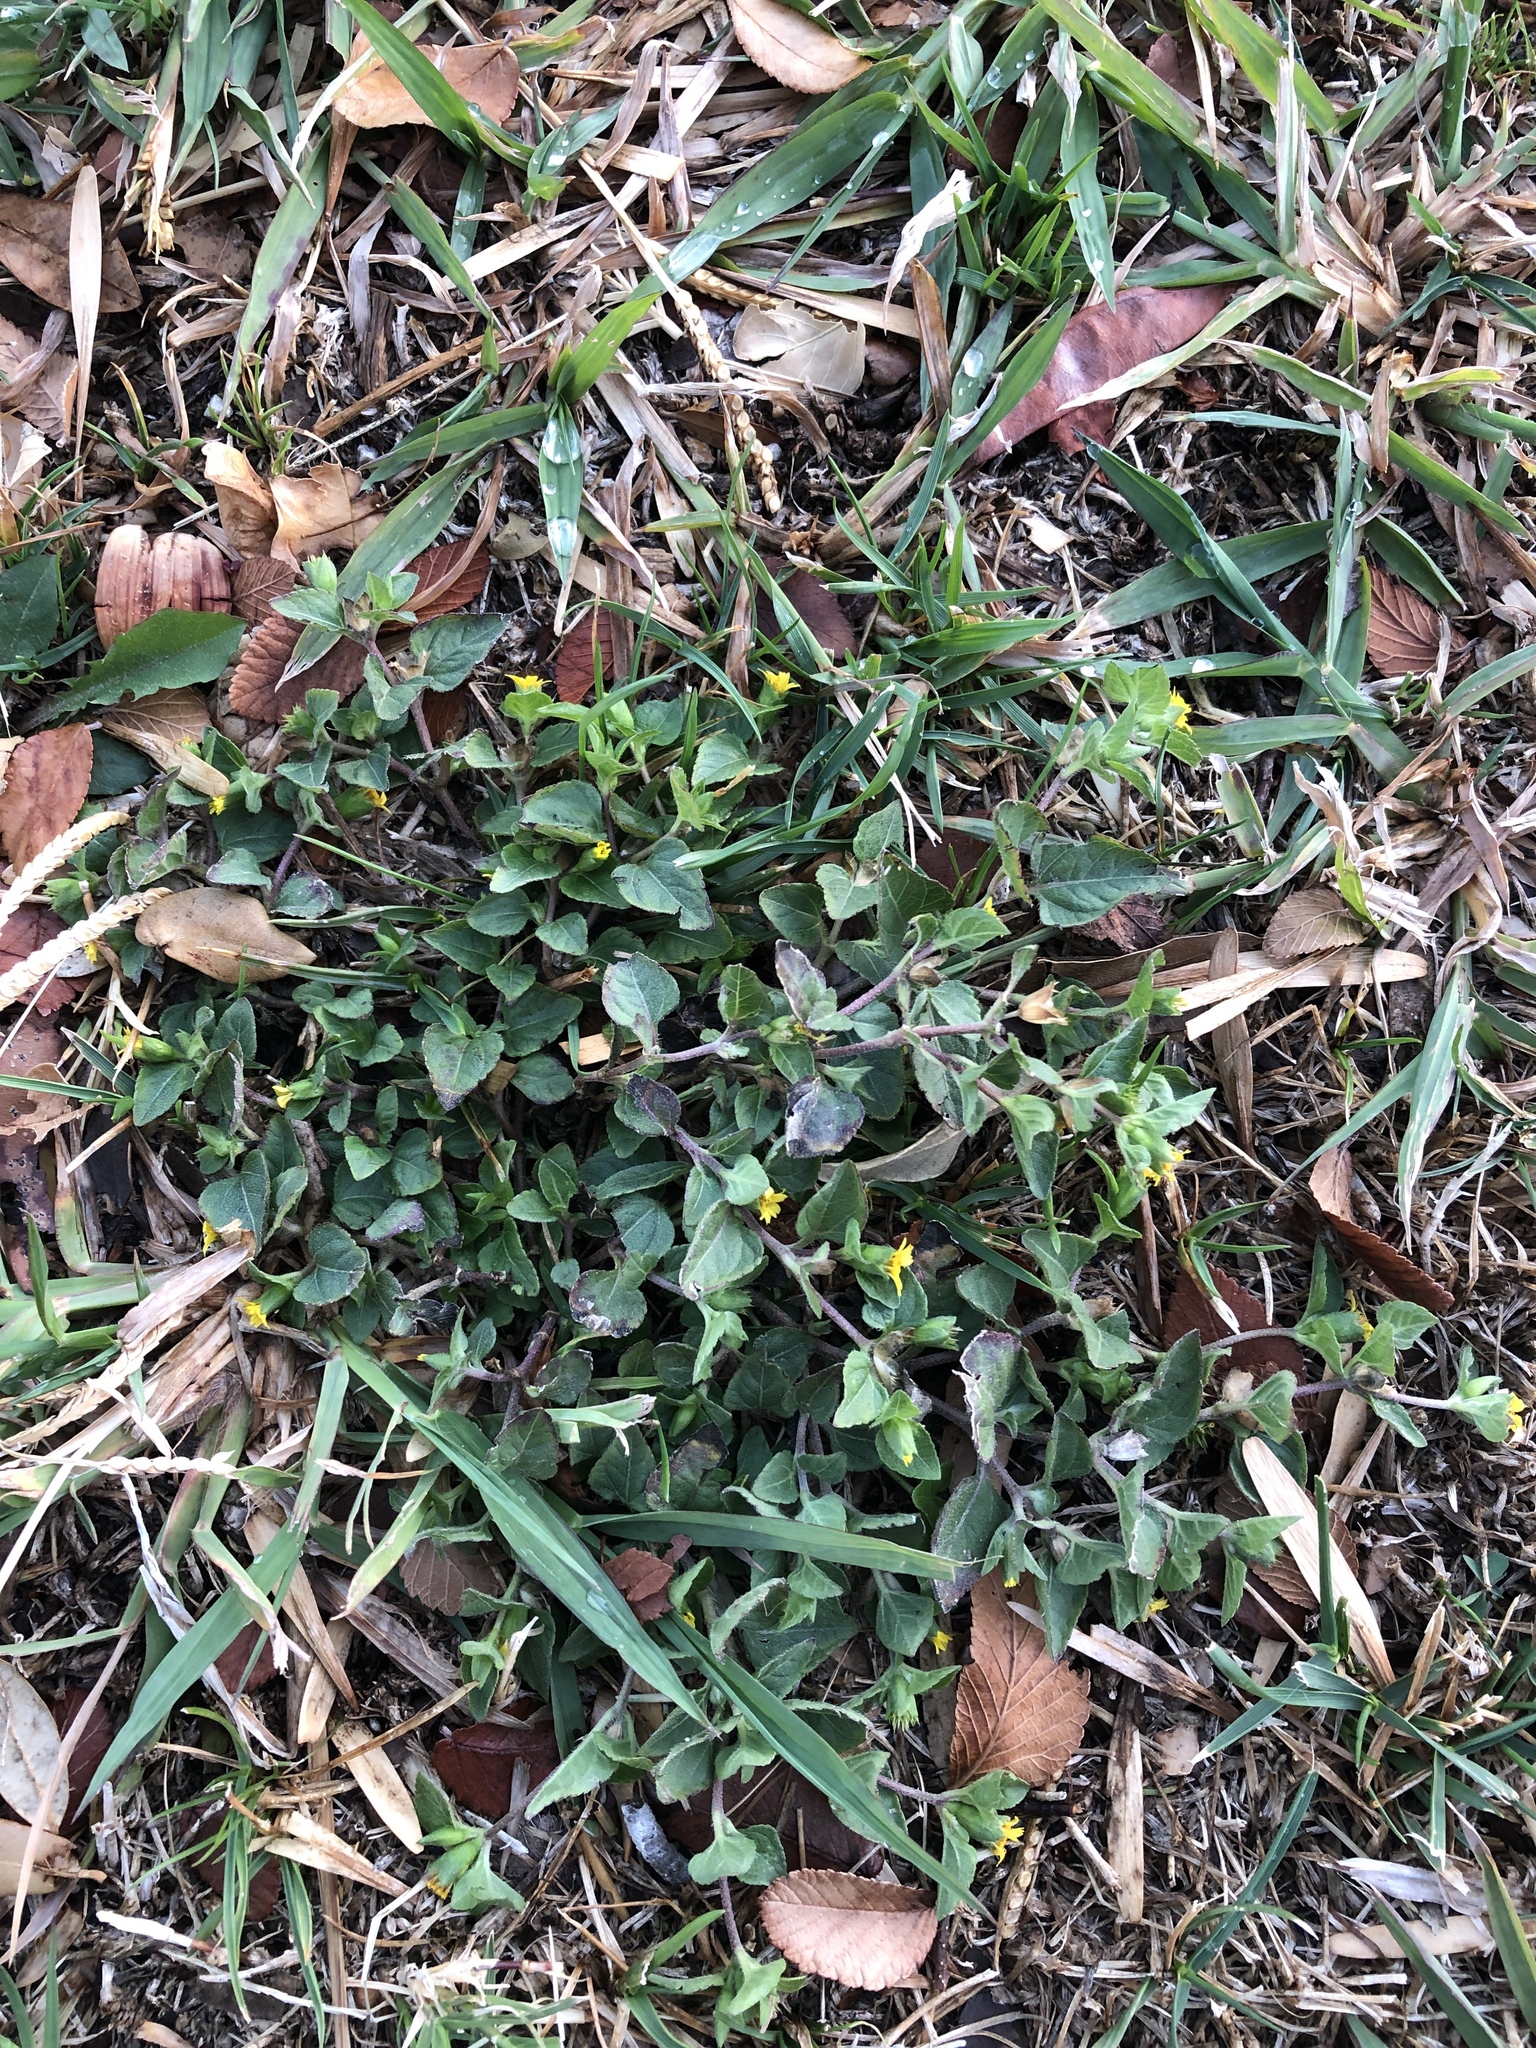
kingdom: Plantae
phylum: Tracheophyta
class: Magnoliopsida
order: Asterales
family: Asteraceae
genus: Calyptocarpus
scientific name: Calyptocarpus vialis
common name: Straggler daisy
